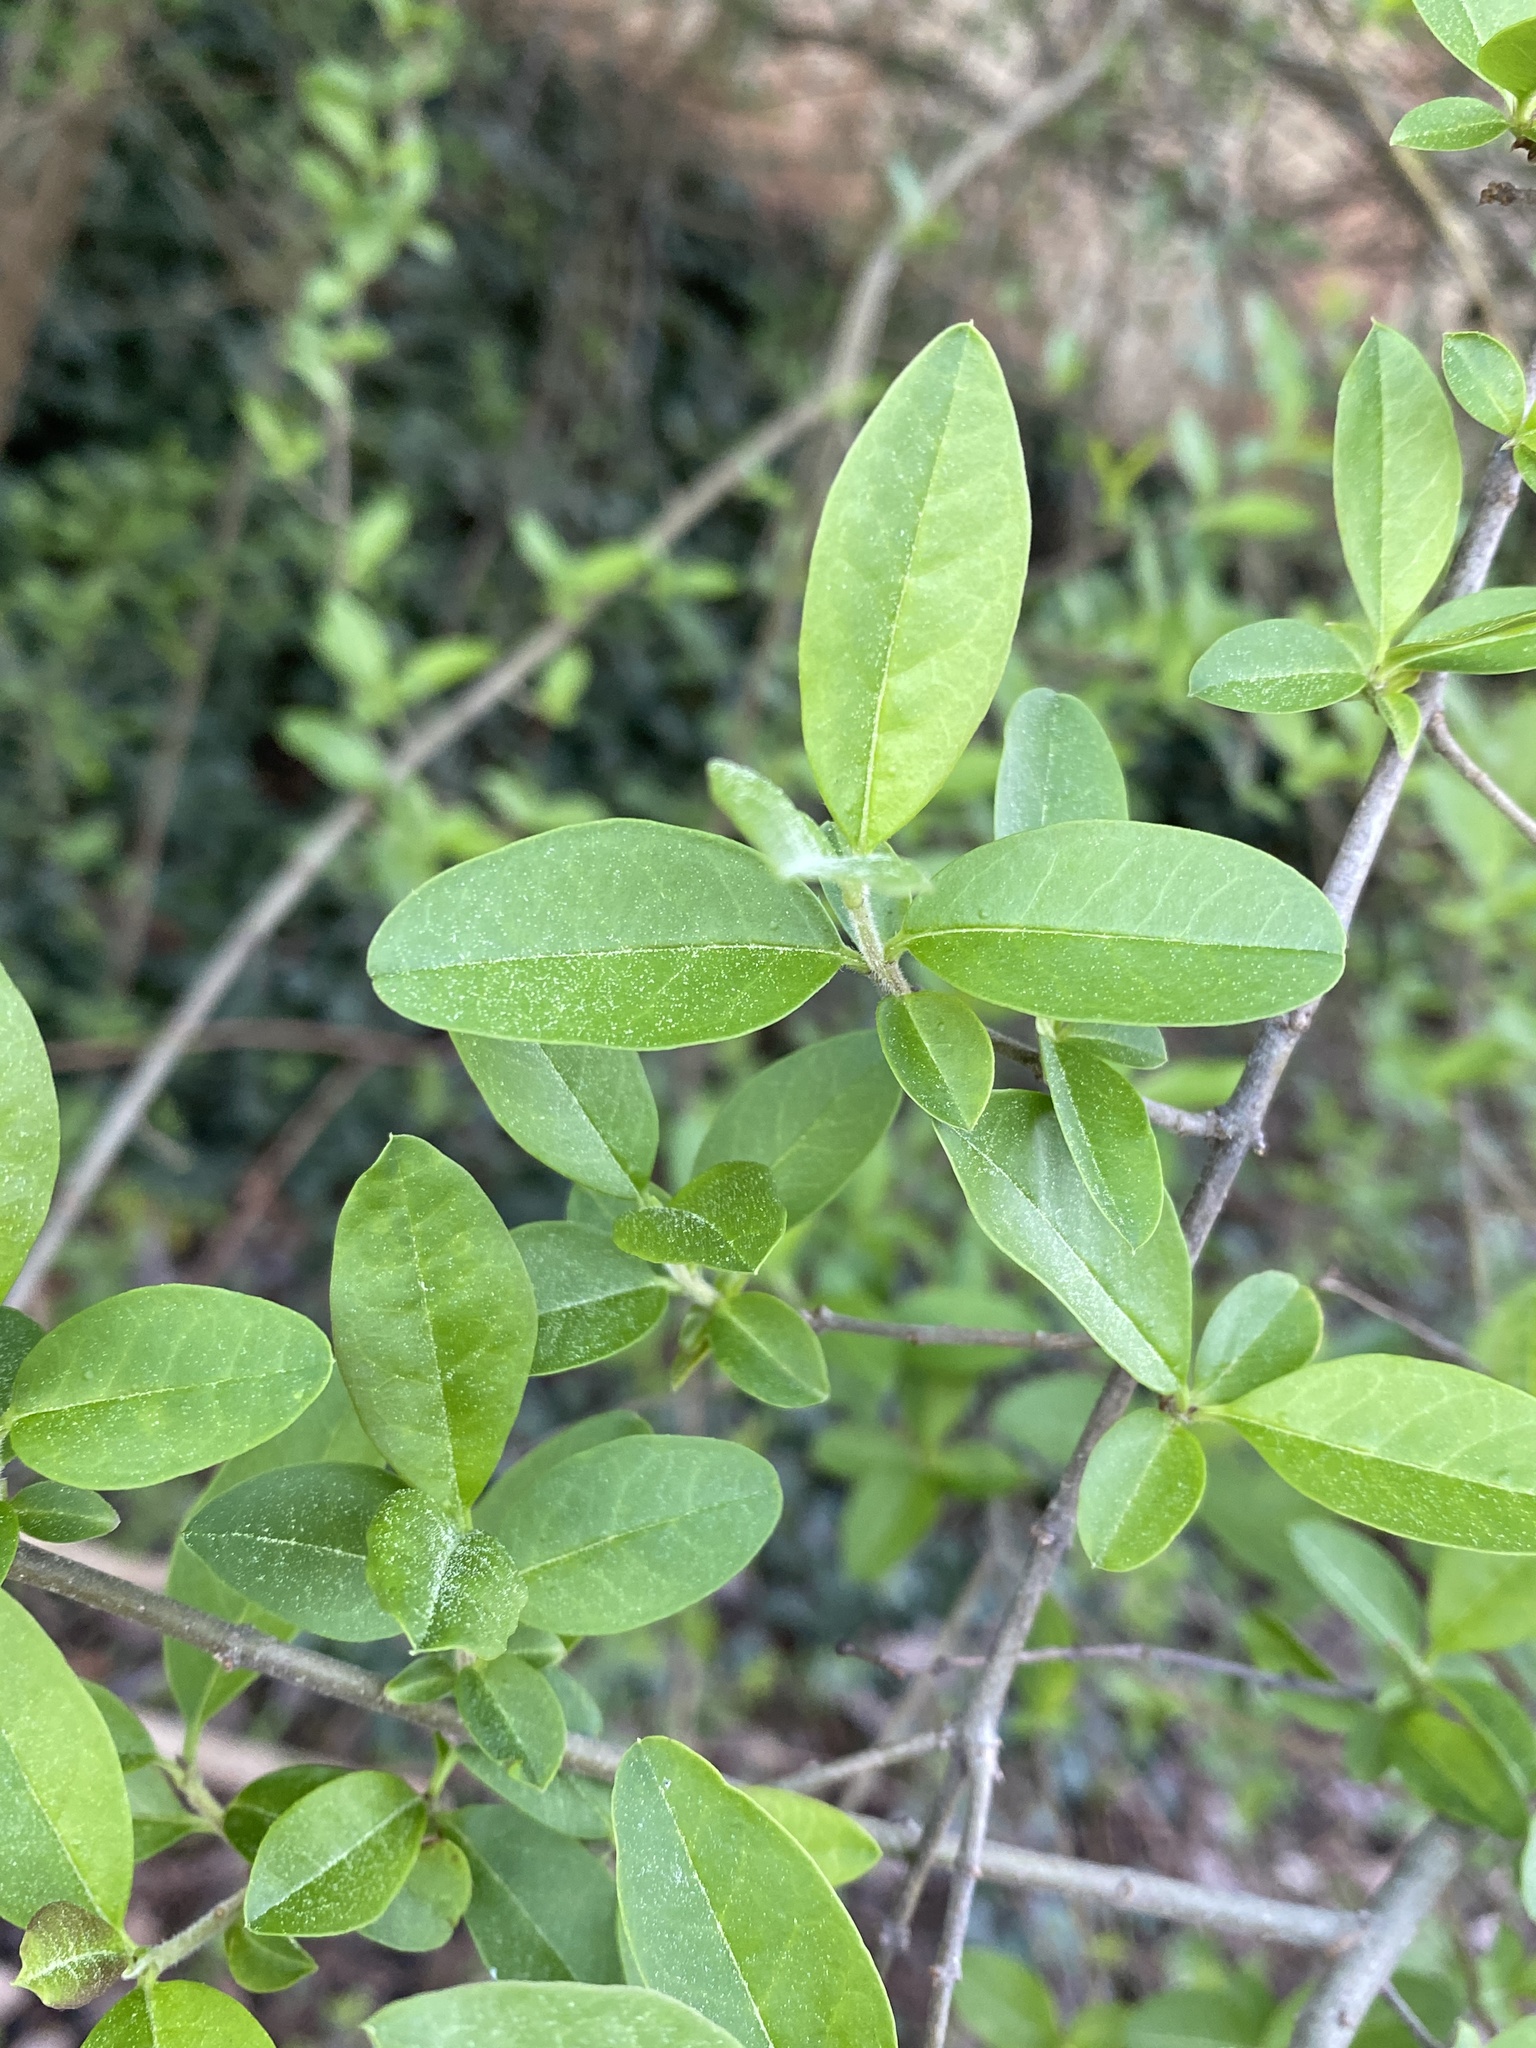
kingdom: Plantae
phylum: Tracheophyta
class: Magnoliopsida
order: Lamiales
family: Oleaceae
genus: Ligustrum
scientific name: Ligustrum sinense
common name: Chinese privet
